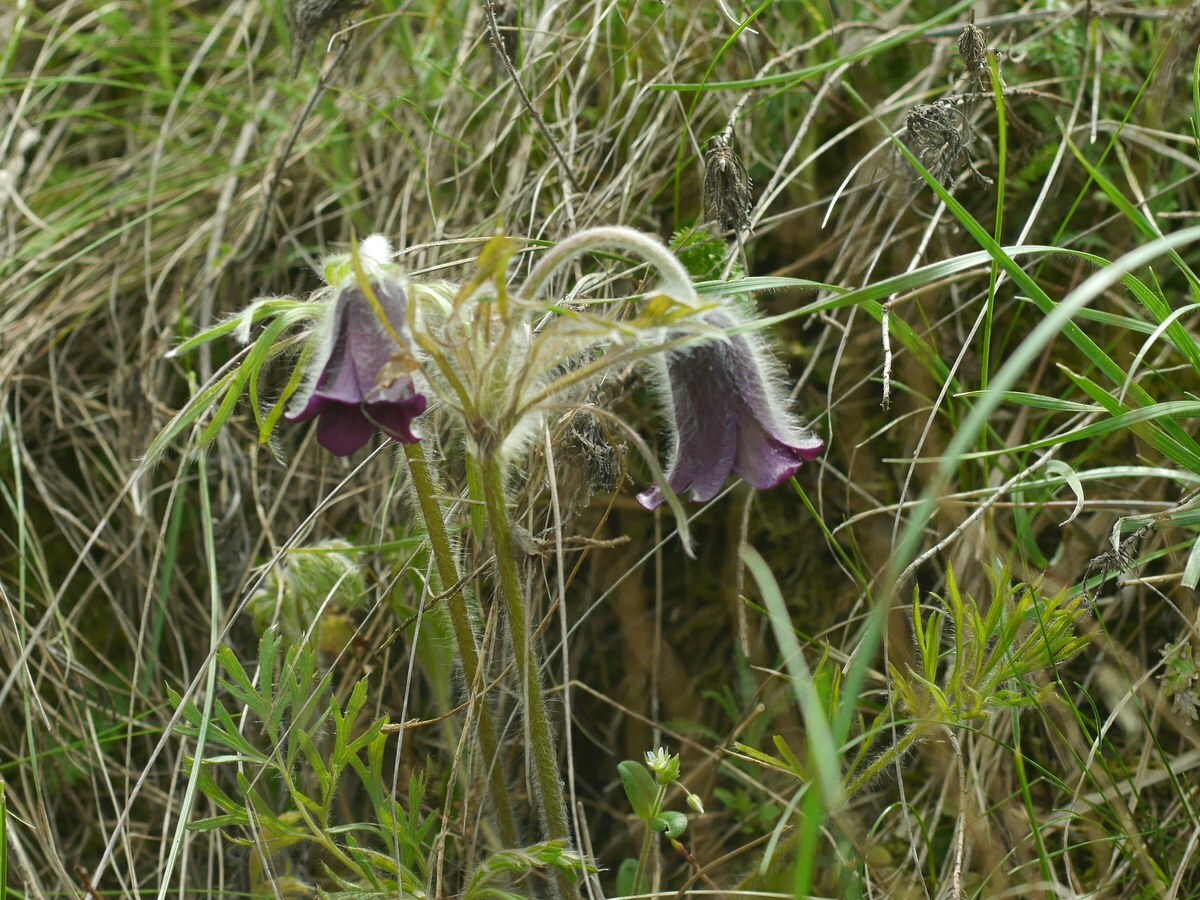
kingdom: Plantae
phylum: Tracheophyta
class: Magnoliopsida
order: Ranunculales
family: Ranunculaceae
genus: Pulsatilla
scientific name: Pulsatilla pratensis
